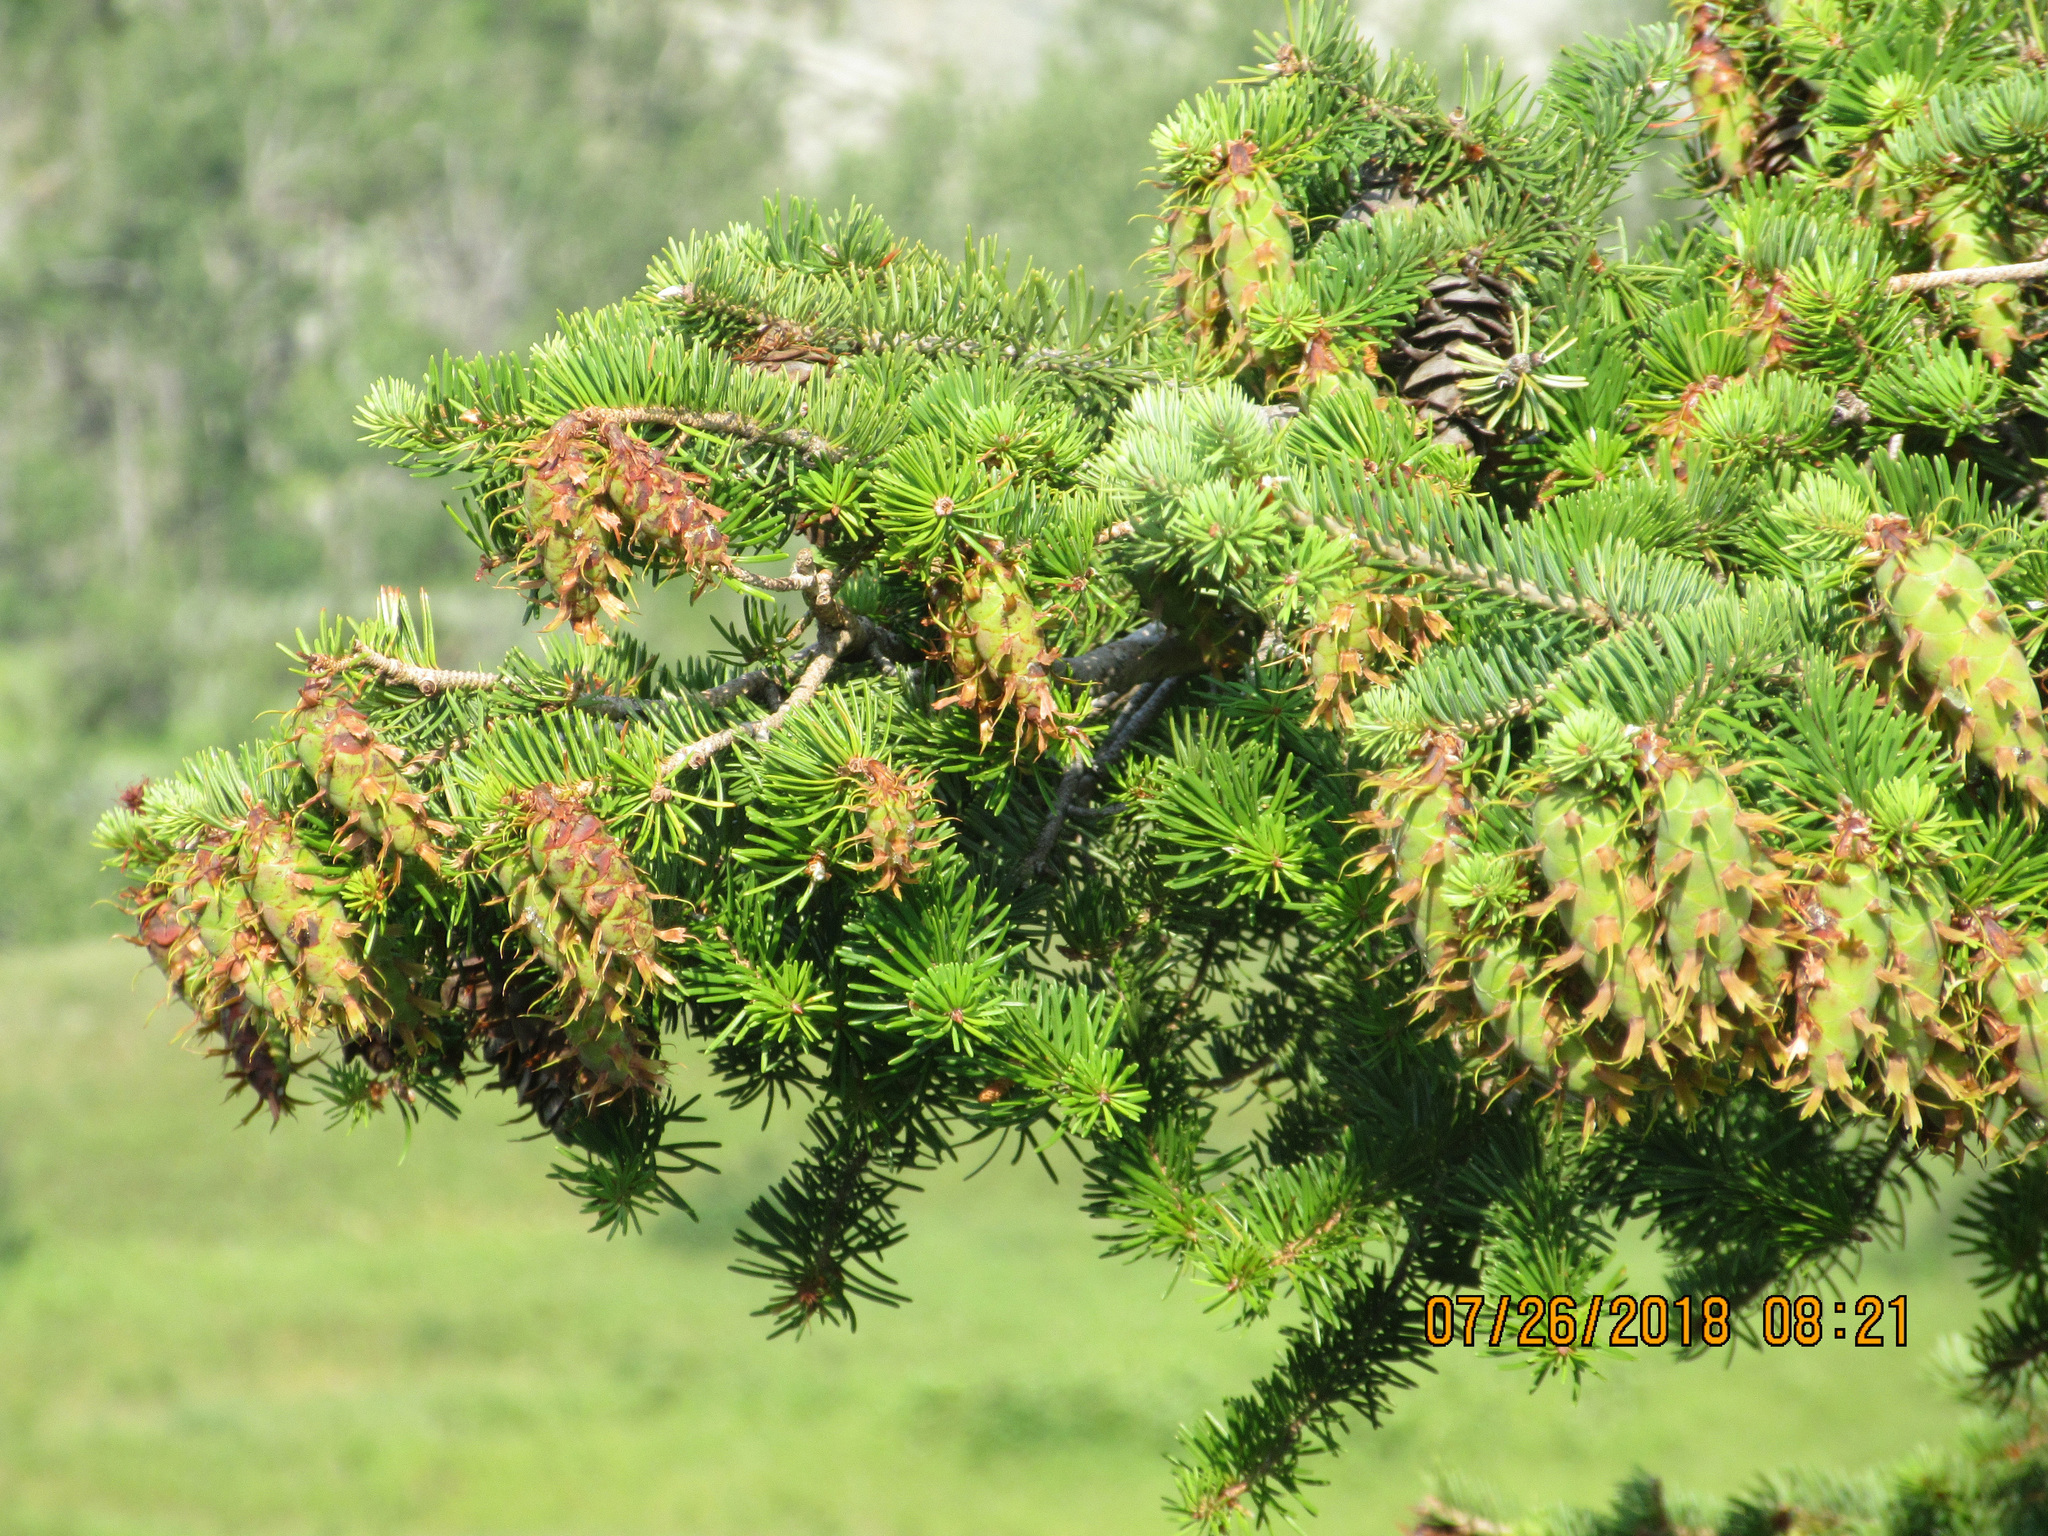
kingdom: Plantae
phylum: Tracheophyta
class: Pinopsida
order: Pinales
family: Pinaceae
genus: Pseudotsuga
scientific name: Pseudotsuga menziesii
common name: Douglas fir
